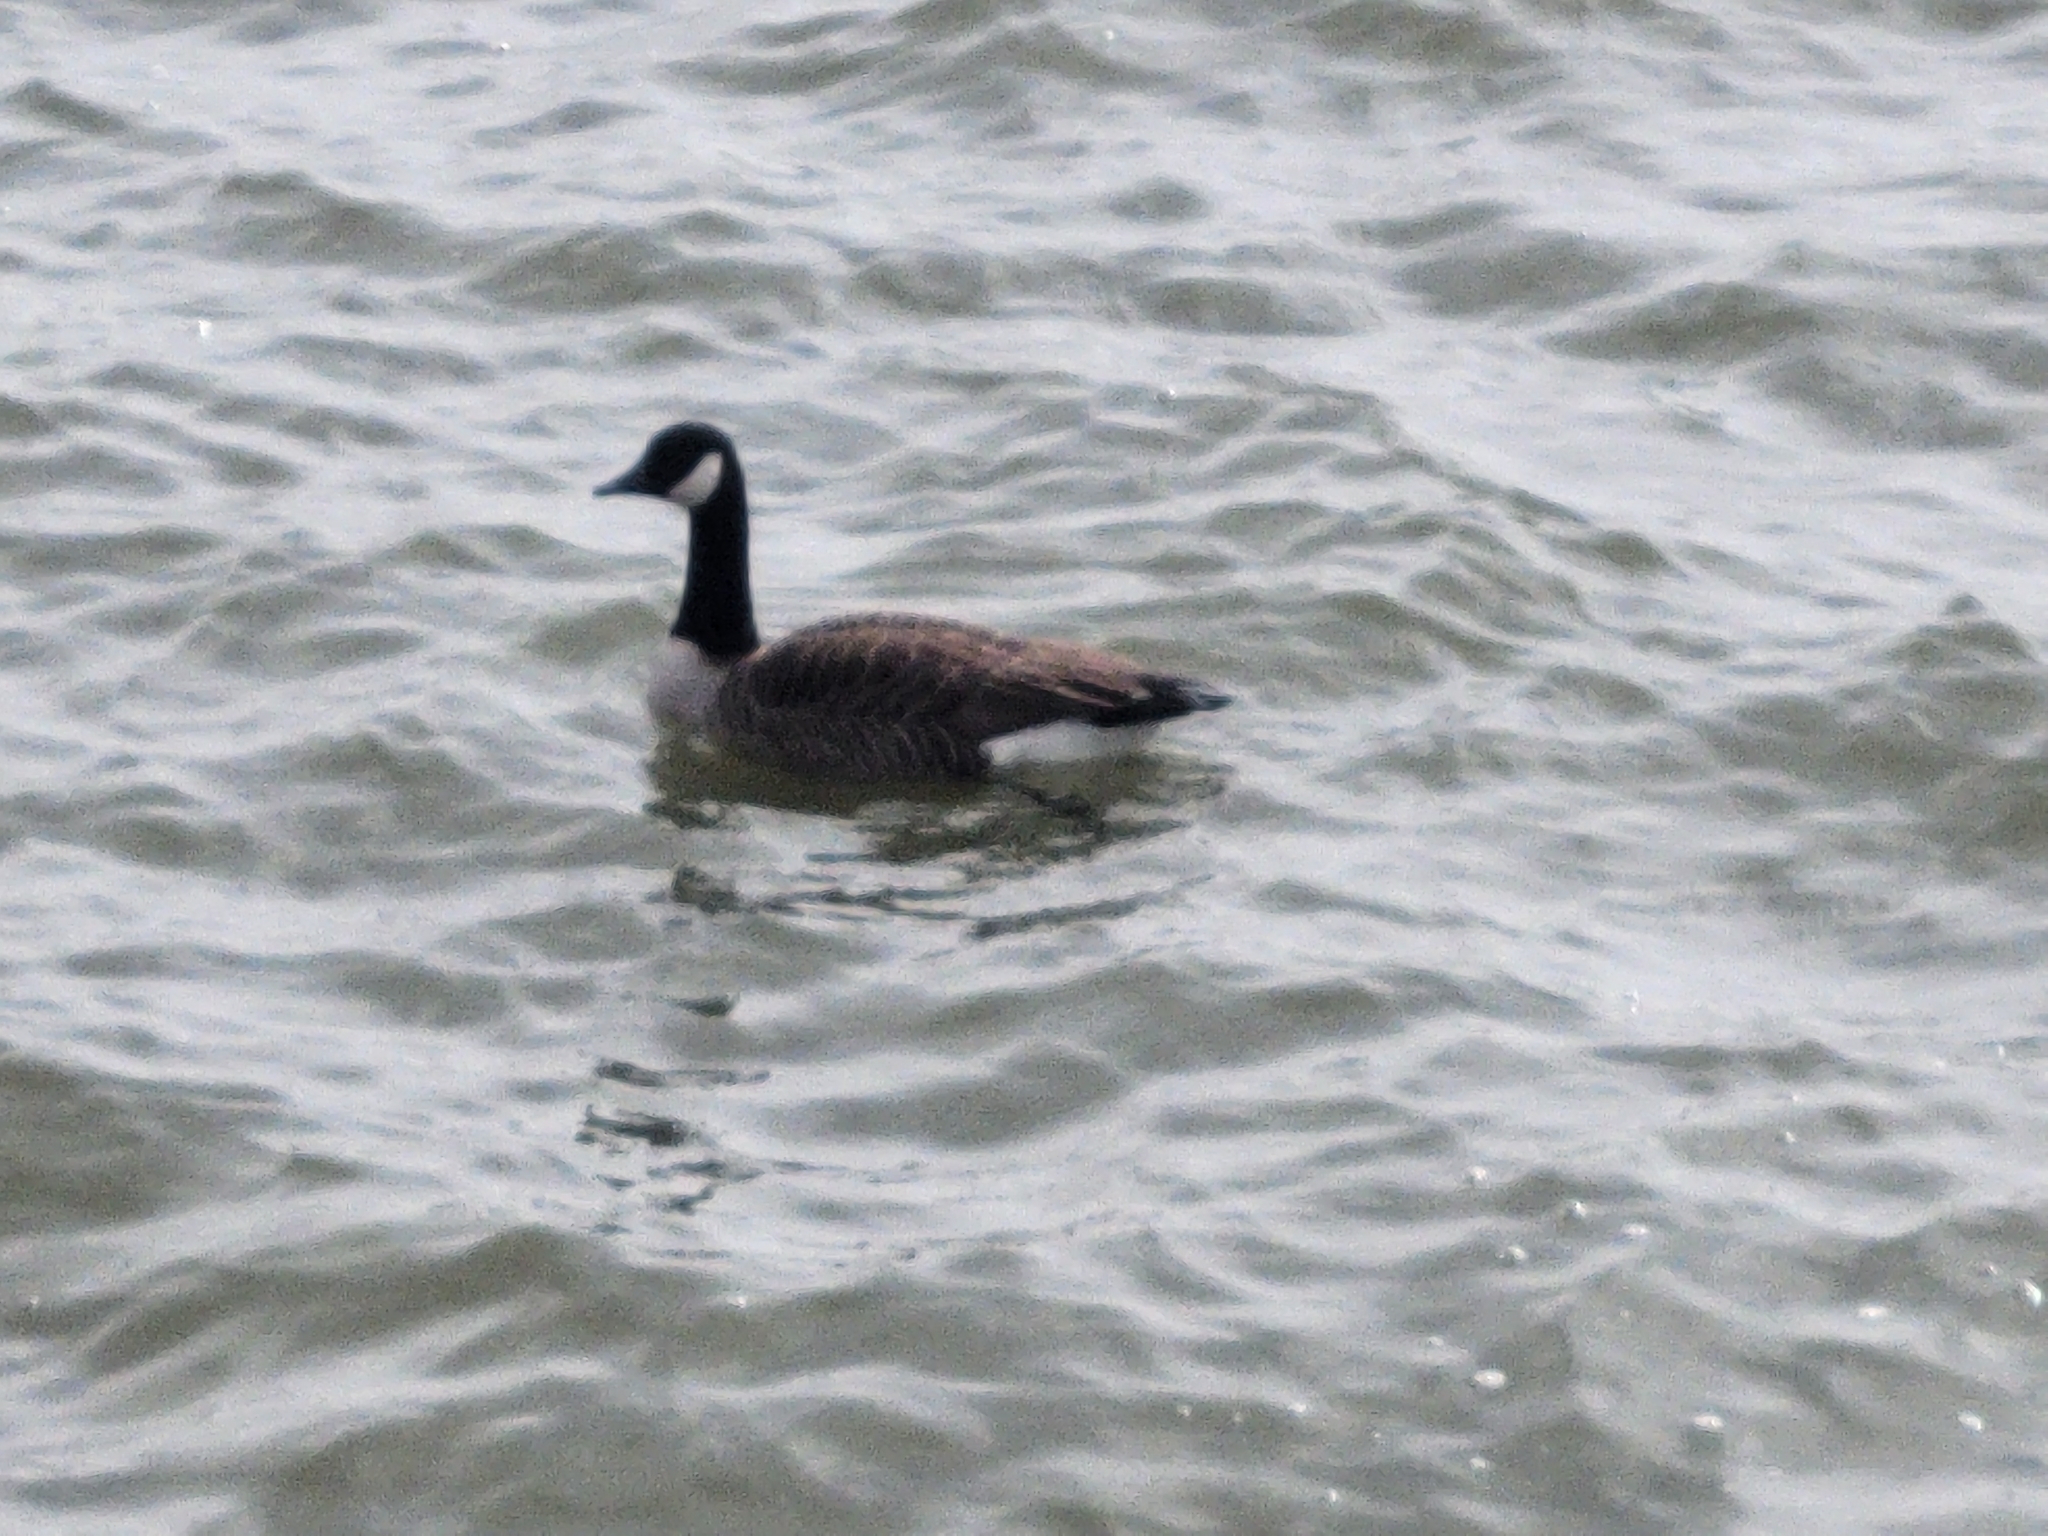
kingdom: Animalia
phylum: Chordata
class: Aves
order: Anseriformes
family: Anatidae
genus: Branta
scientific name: Branta canadensis
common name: Canada goose
